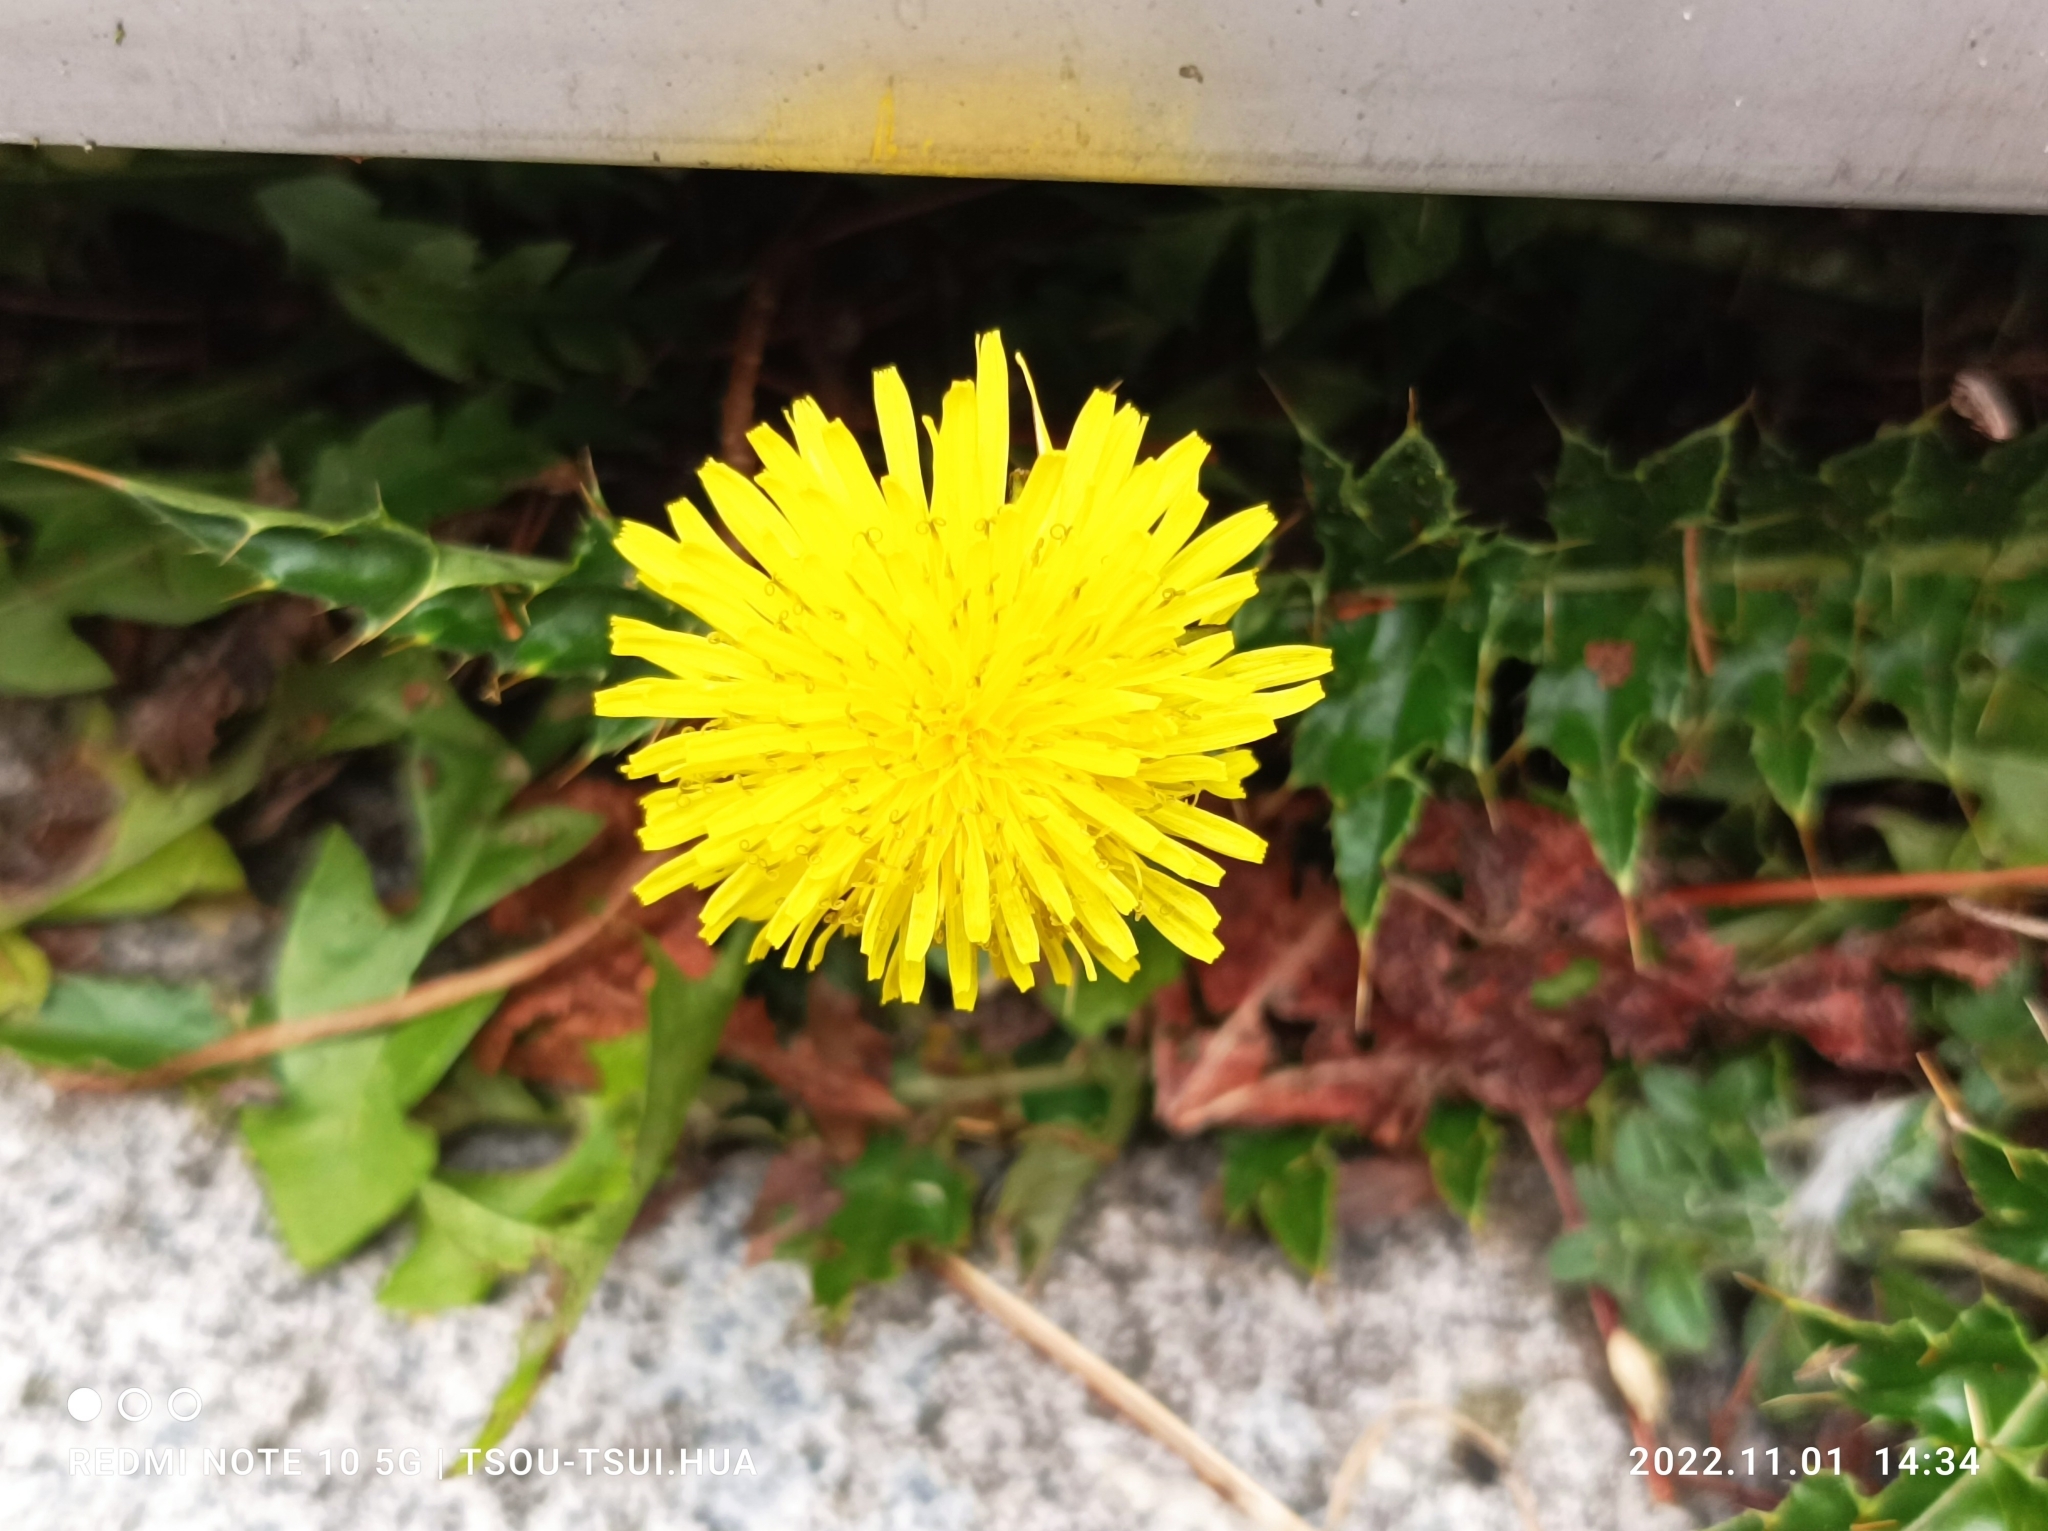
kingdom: Plantae
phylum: Tracheophyta
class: Magnoliopsida
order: Asterales
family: Asteraceae
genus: Taraxacum
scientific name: Taraxacum officinale
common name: Common dandelion
